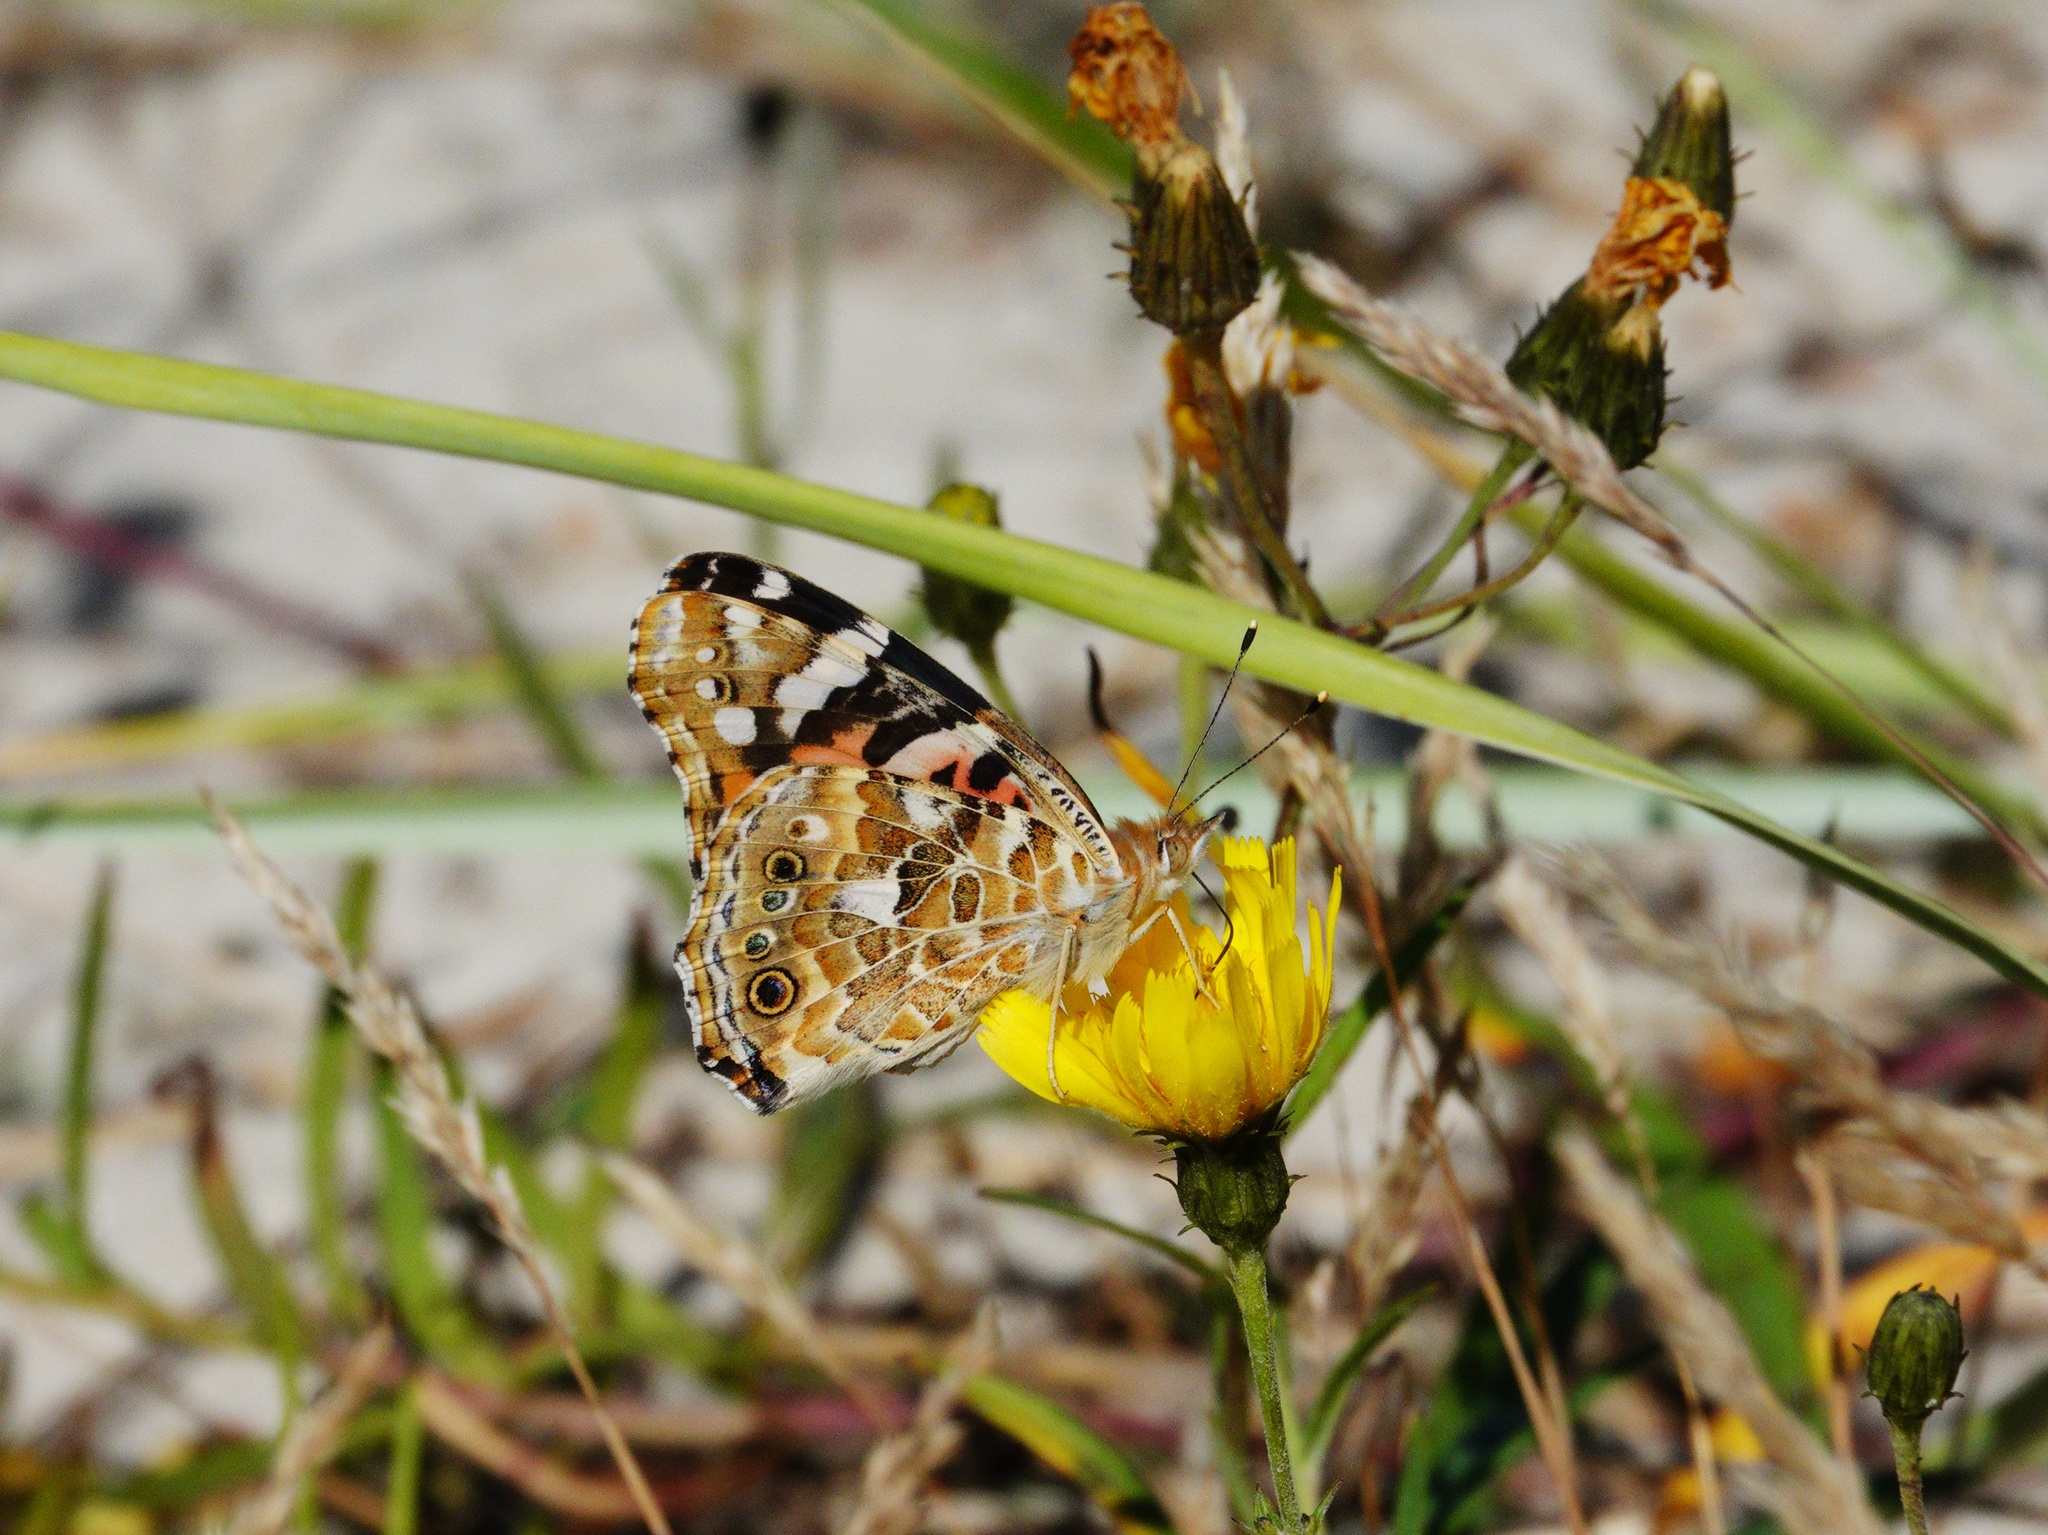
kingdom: Animalia
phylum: Arthropoda
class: Insecta
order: Lepidoptera
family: Nymphalidae
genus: Vanessa
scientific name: Vanessa cardui
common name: Painted lady
